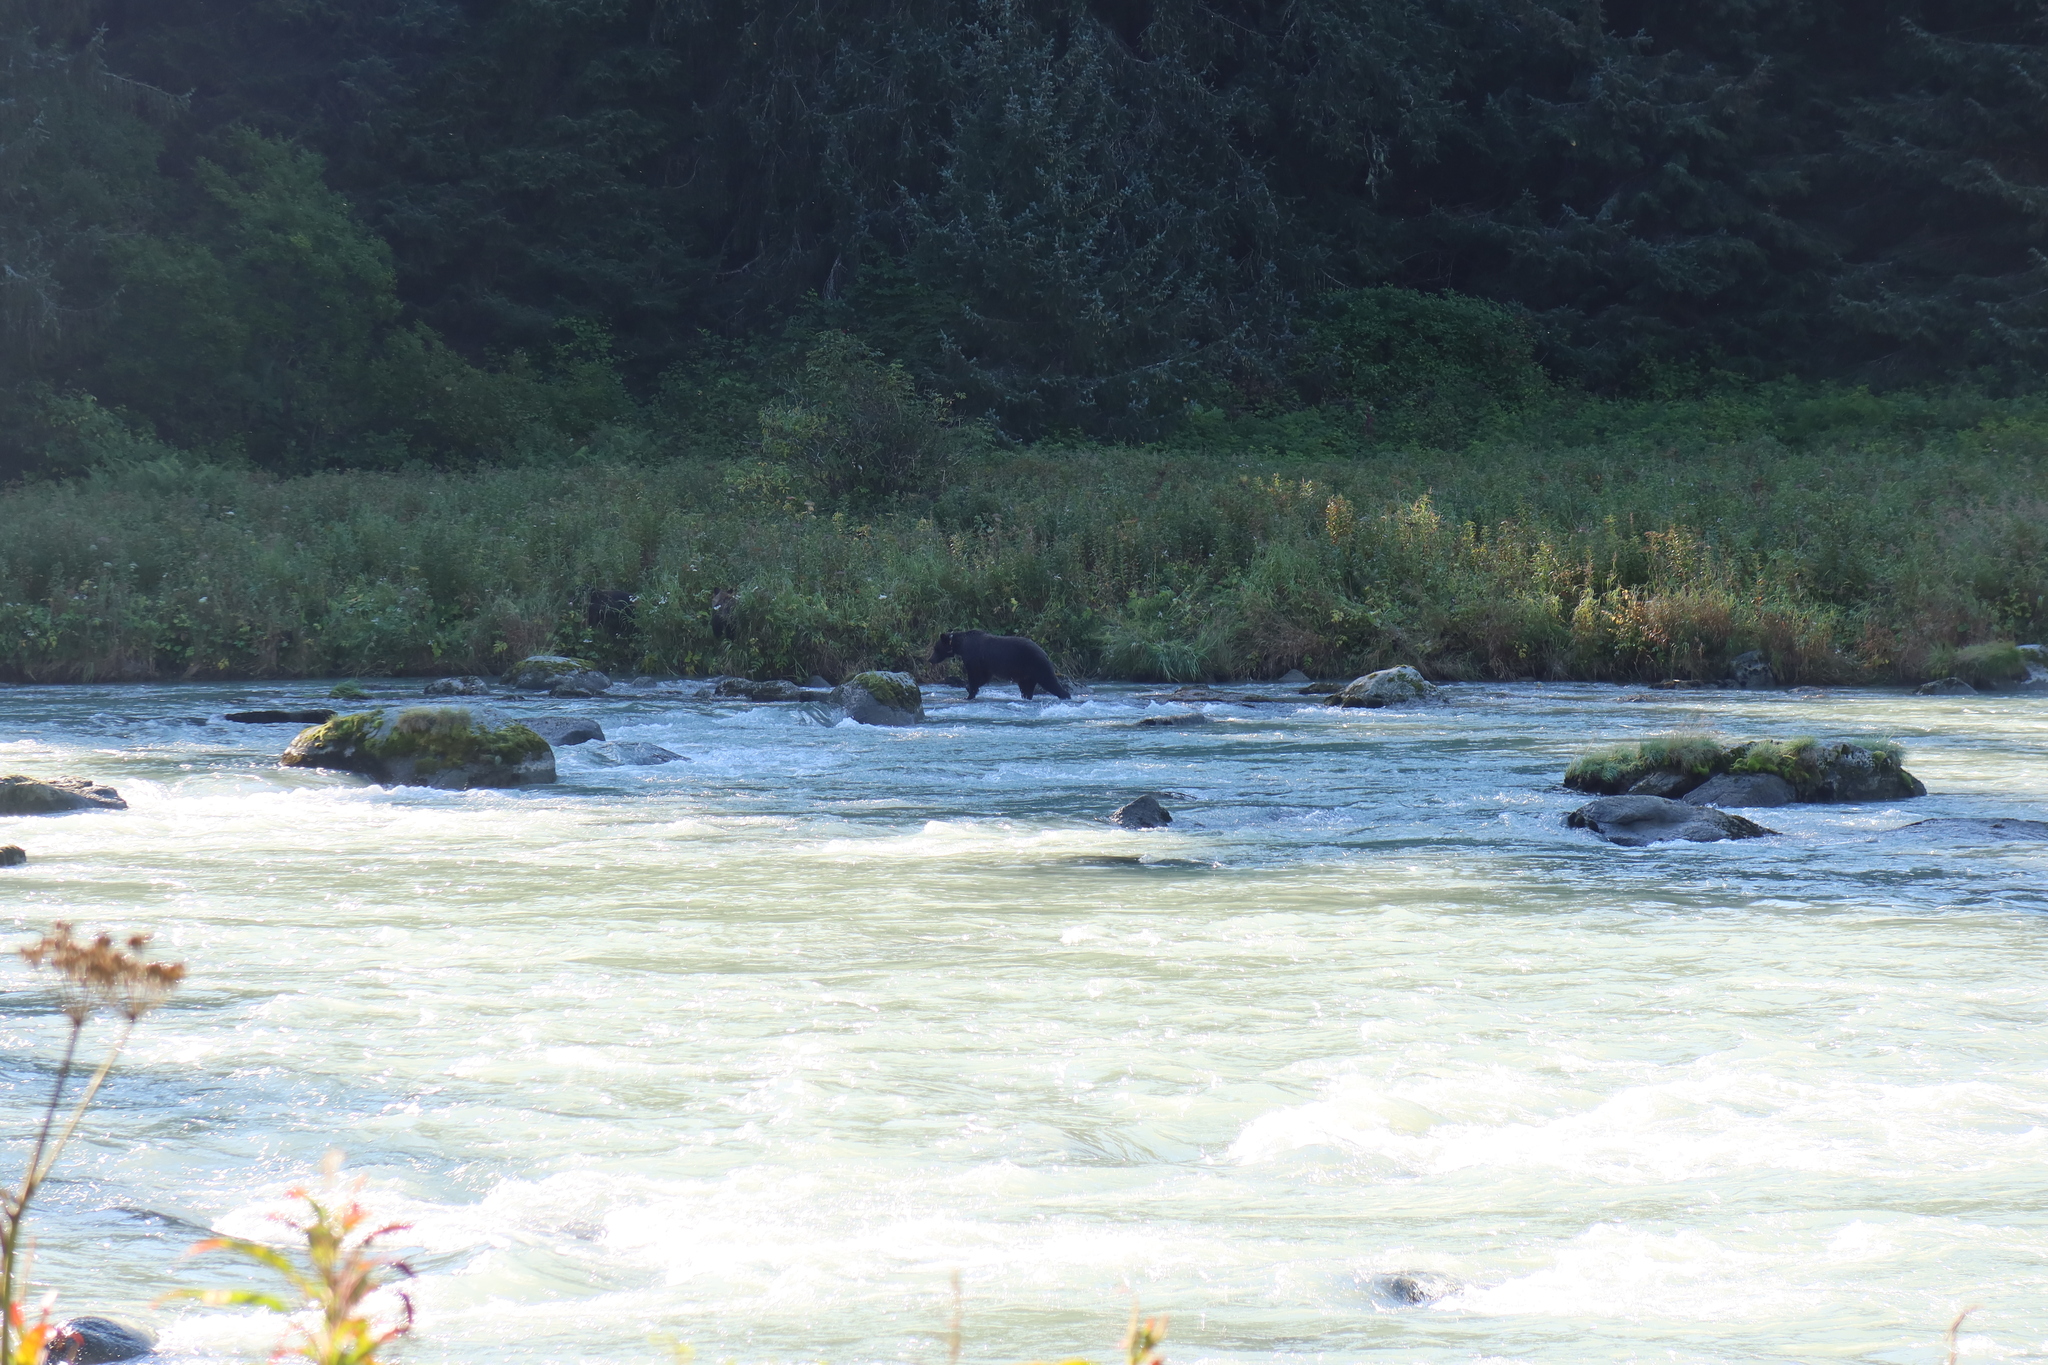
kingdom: Animalia
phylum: Chordata
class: Mammalia
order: Carnivora
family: Ursidae
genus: Ursus
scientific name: Ursus arctos
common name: Brown bear
